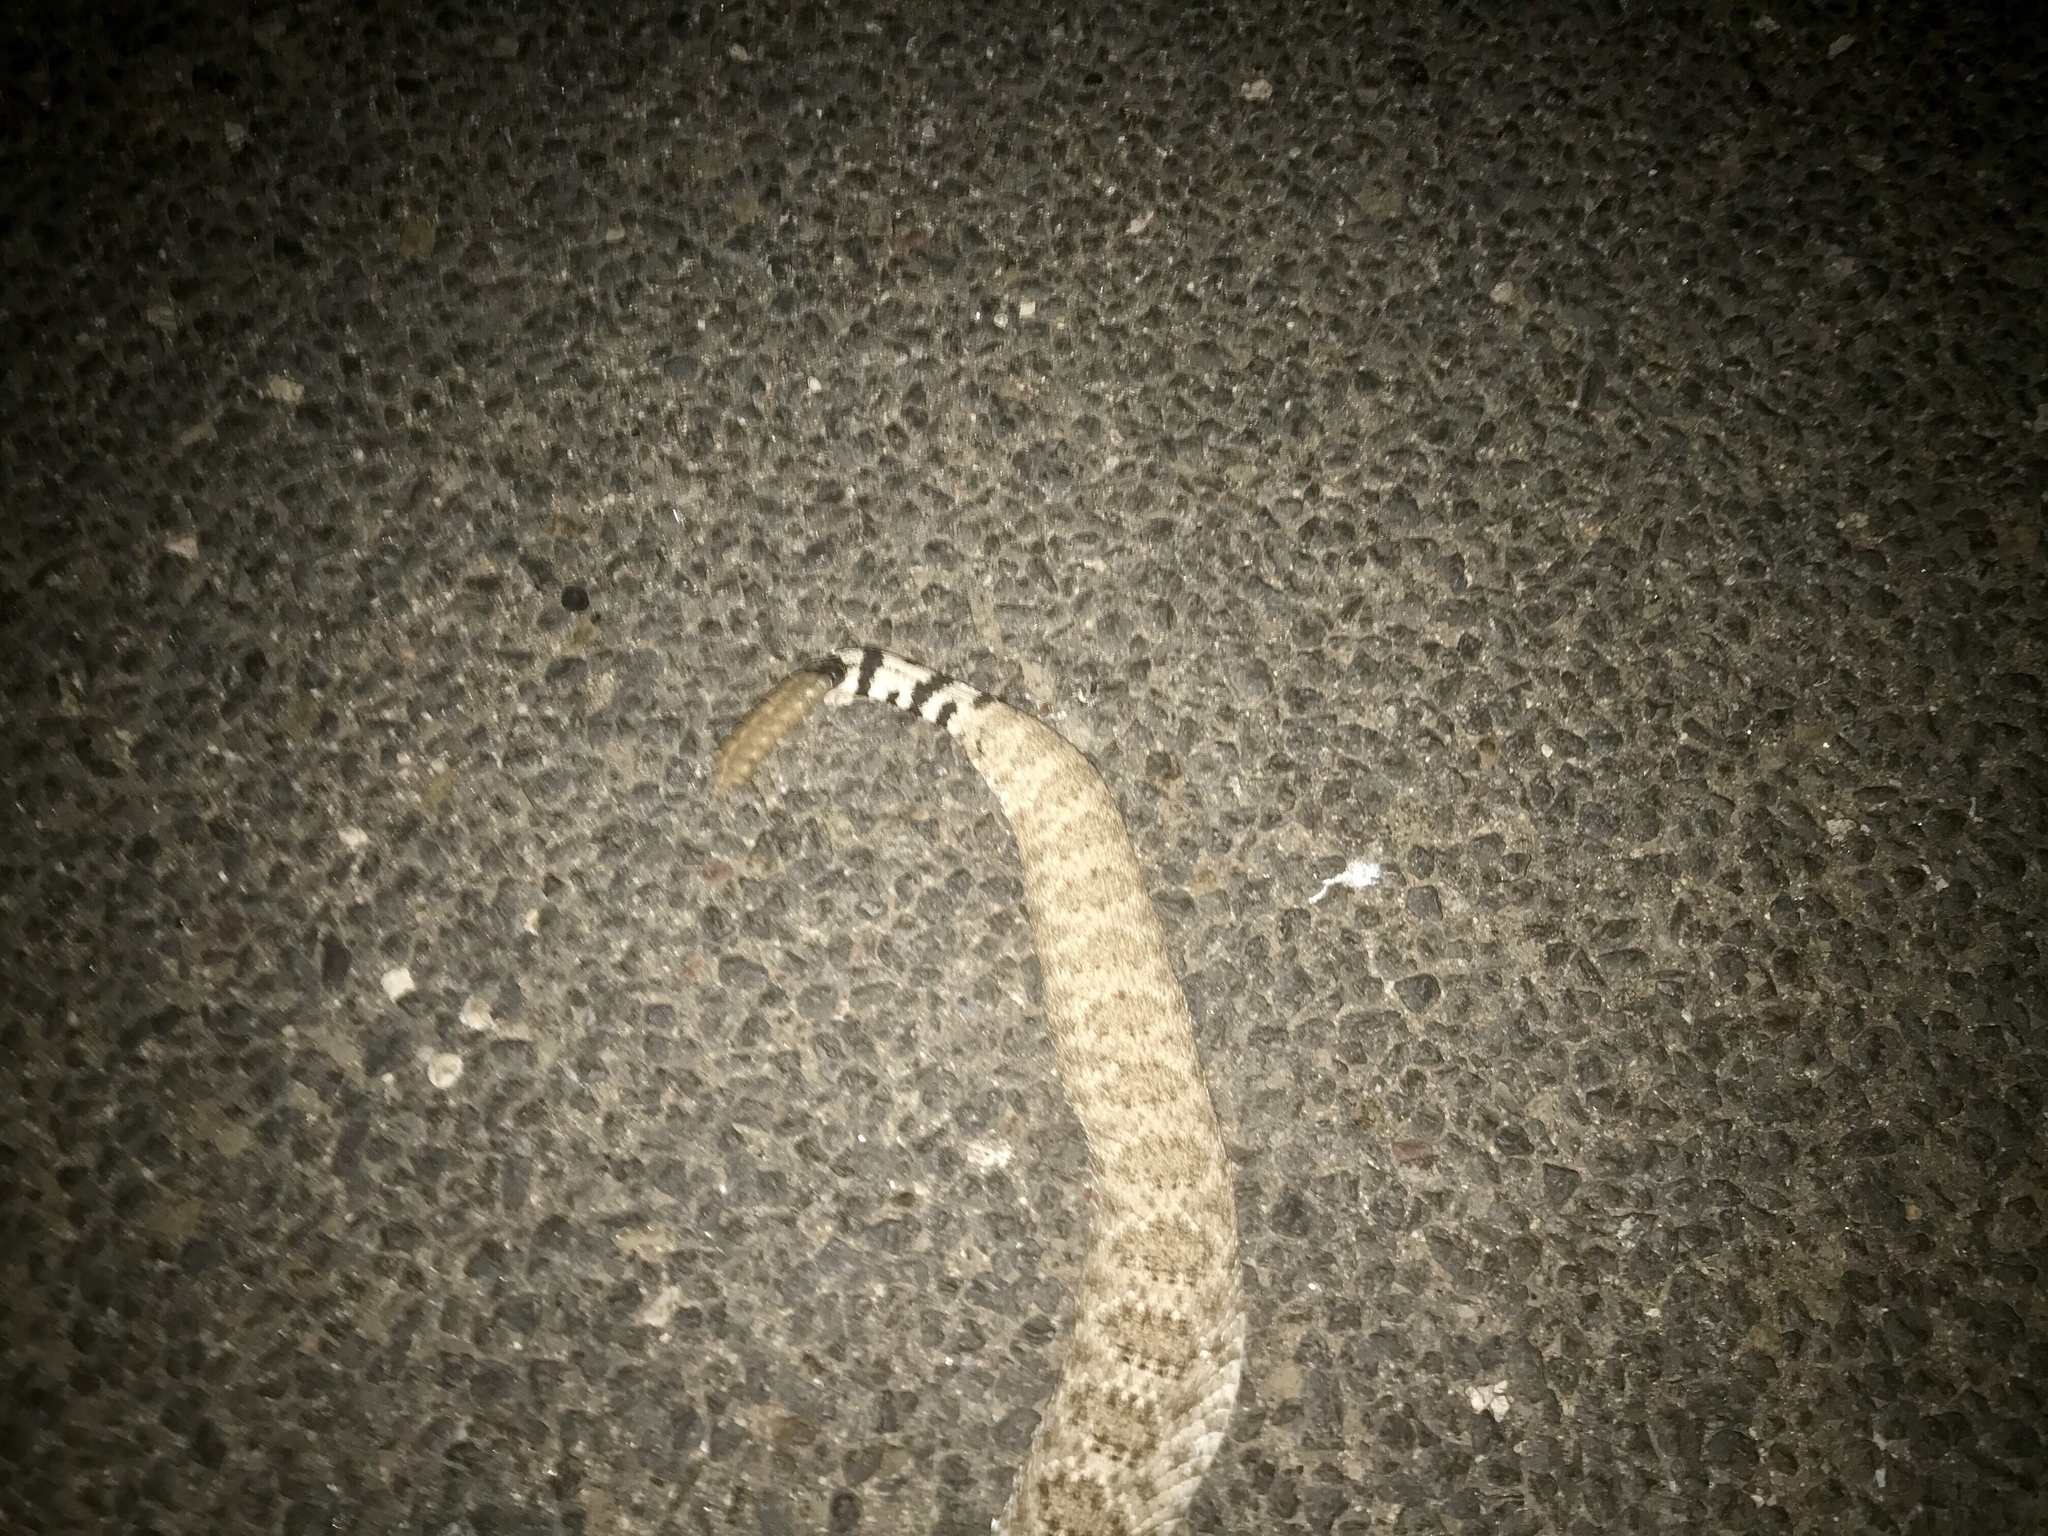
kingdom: Animalia
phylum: Chordata
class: Squamata
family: Viperidae
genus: Crotalus
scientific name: Crotalus atrox
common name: Western diamond-backed rattlesnake
